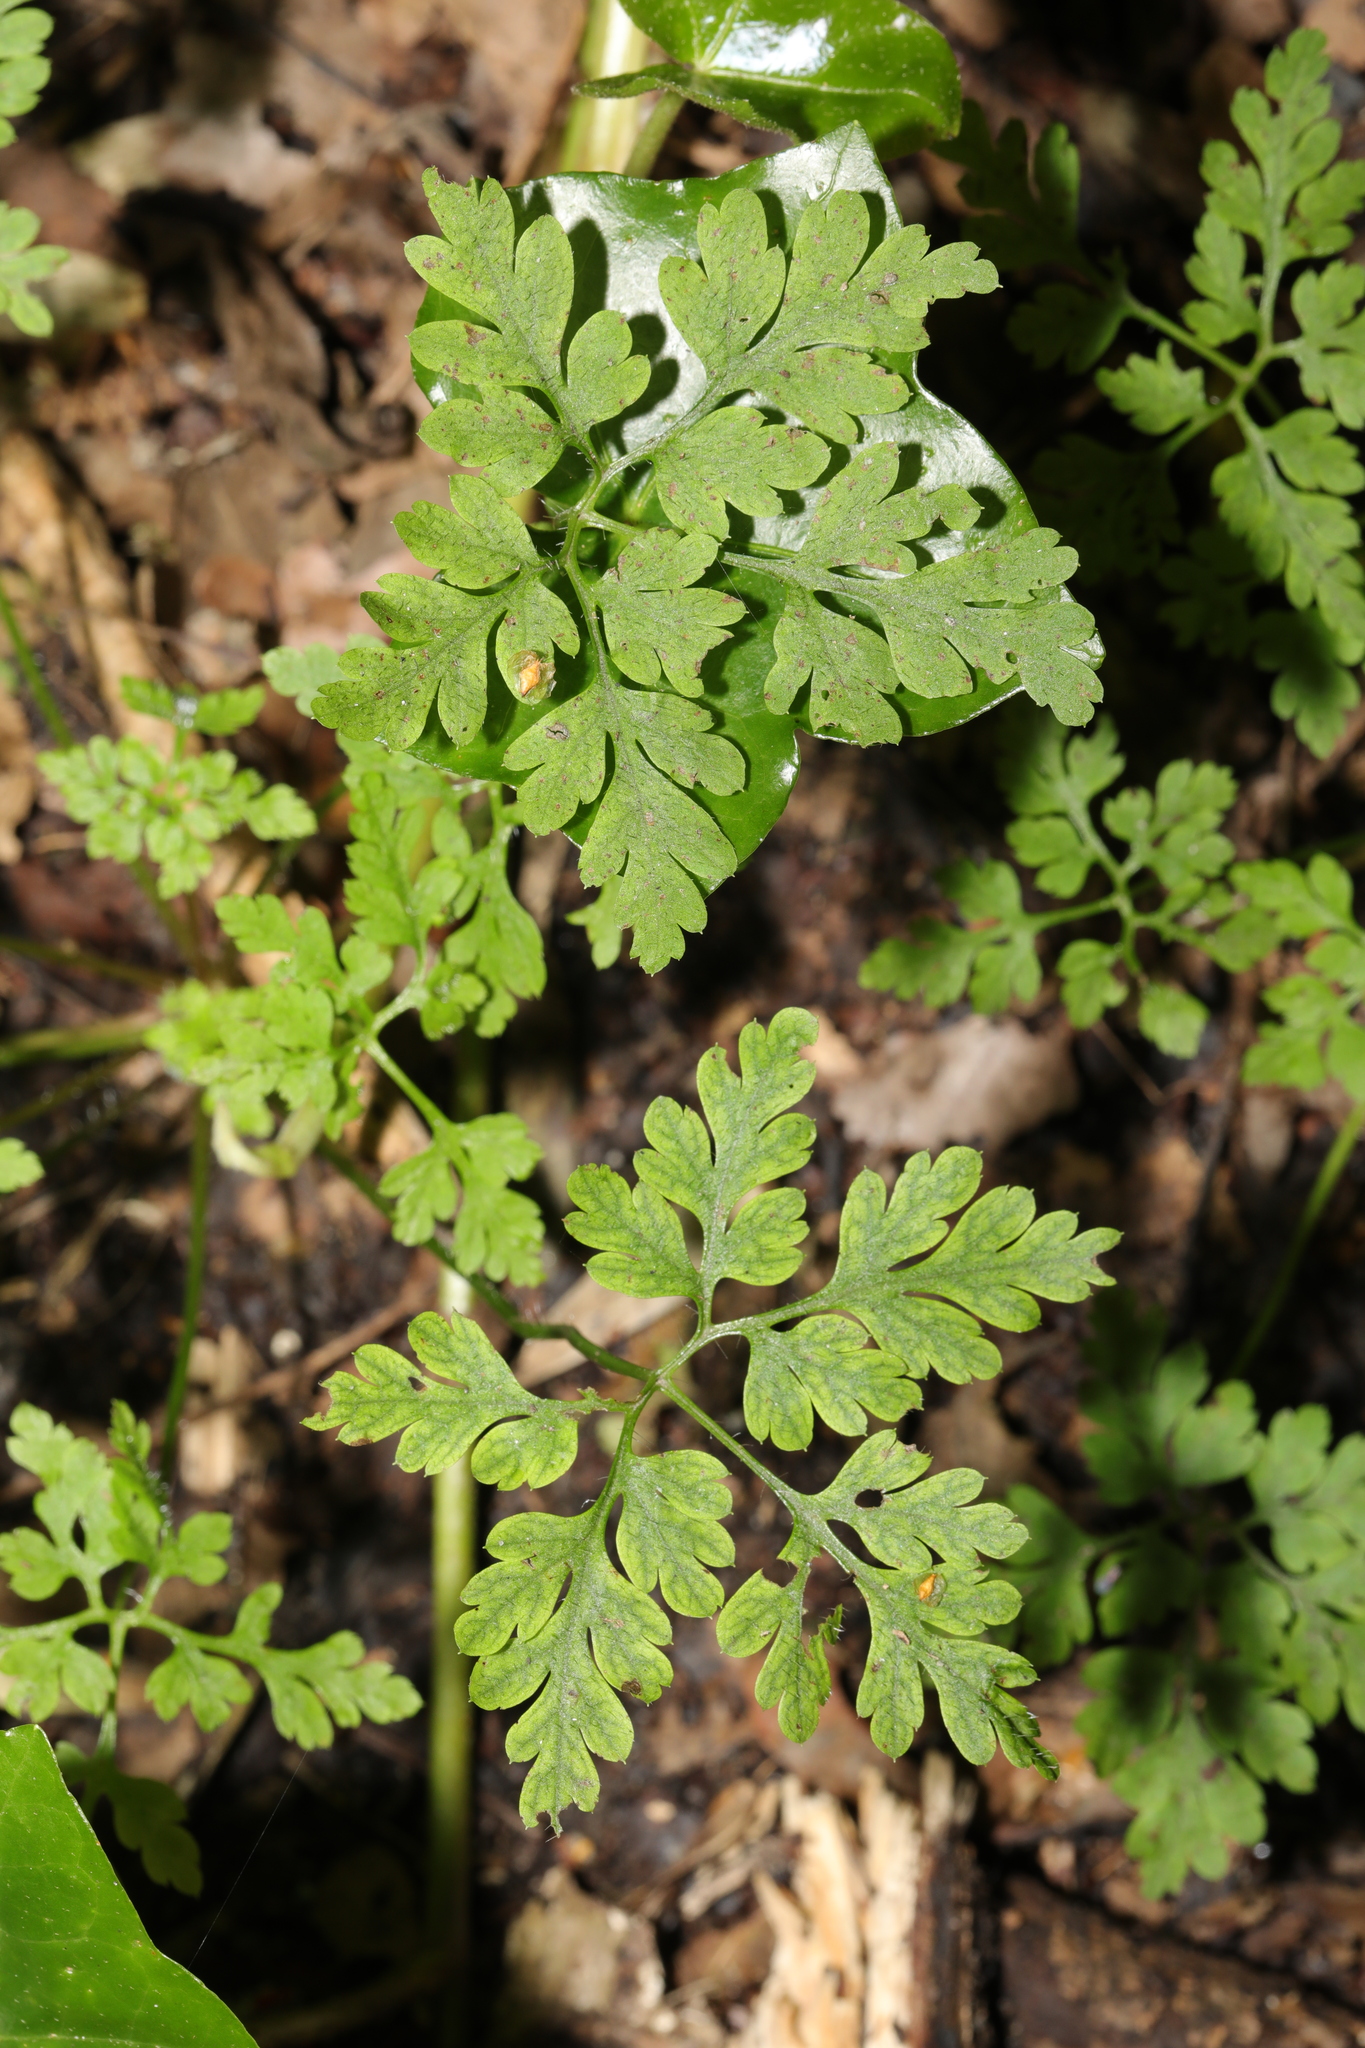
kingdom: Plantae
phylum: Tracheophyta
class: Magnoliopsida
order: Geraniales
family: Geraniaceae
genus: Geranium
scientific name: Geranium robertianum
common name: Herb-robert
